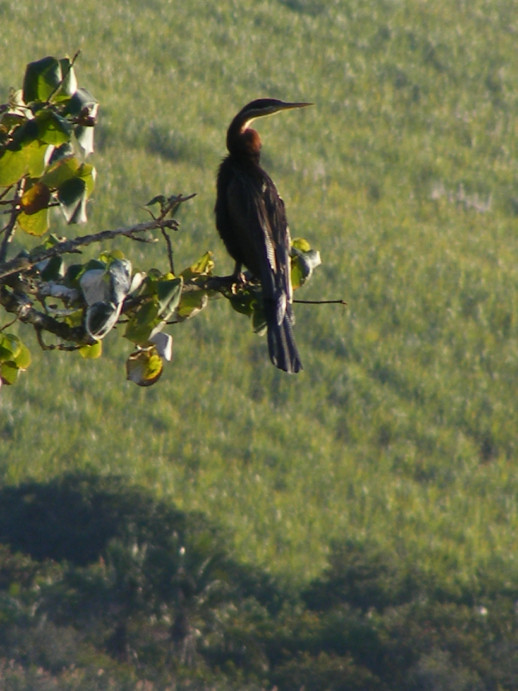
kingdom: Animalia
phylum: Chordata
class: Aves
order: Suliformes
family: Anhingidae
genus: Anhinga
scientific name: Anhinga rufa
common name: African darter
